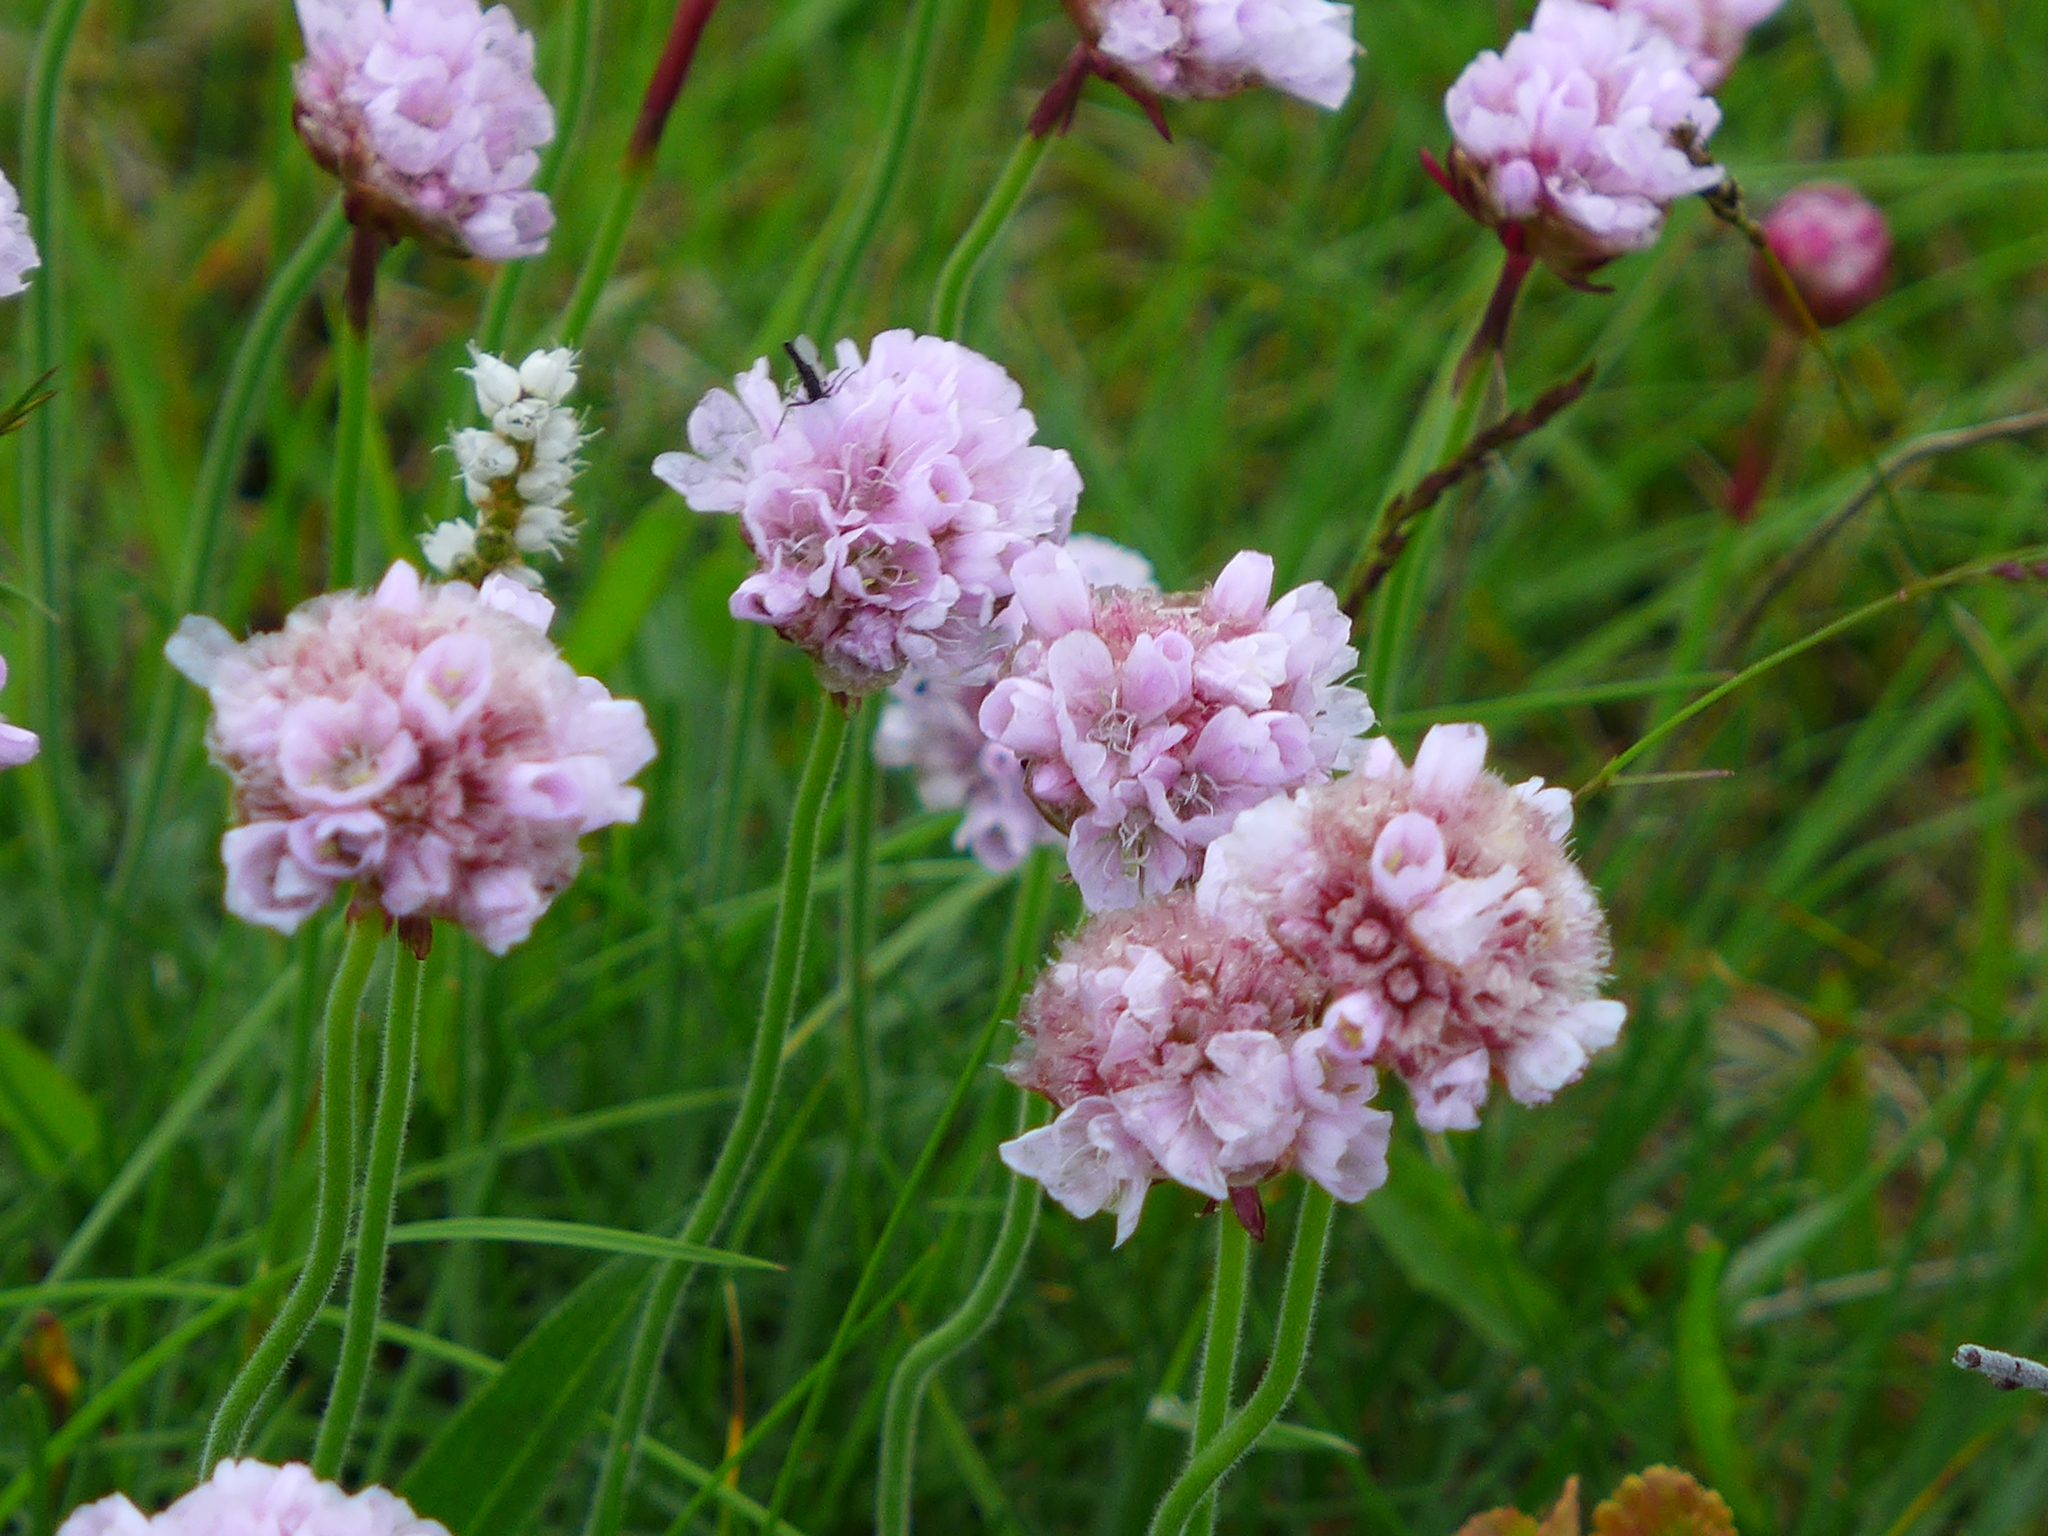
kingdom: Plantae
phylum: Tracheophyta
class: Magnoliopsida
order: Caryophyllales
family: Plumbaginaceae
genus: Armeria
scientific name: Armeria maritima
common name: Thrift
